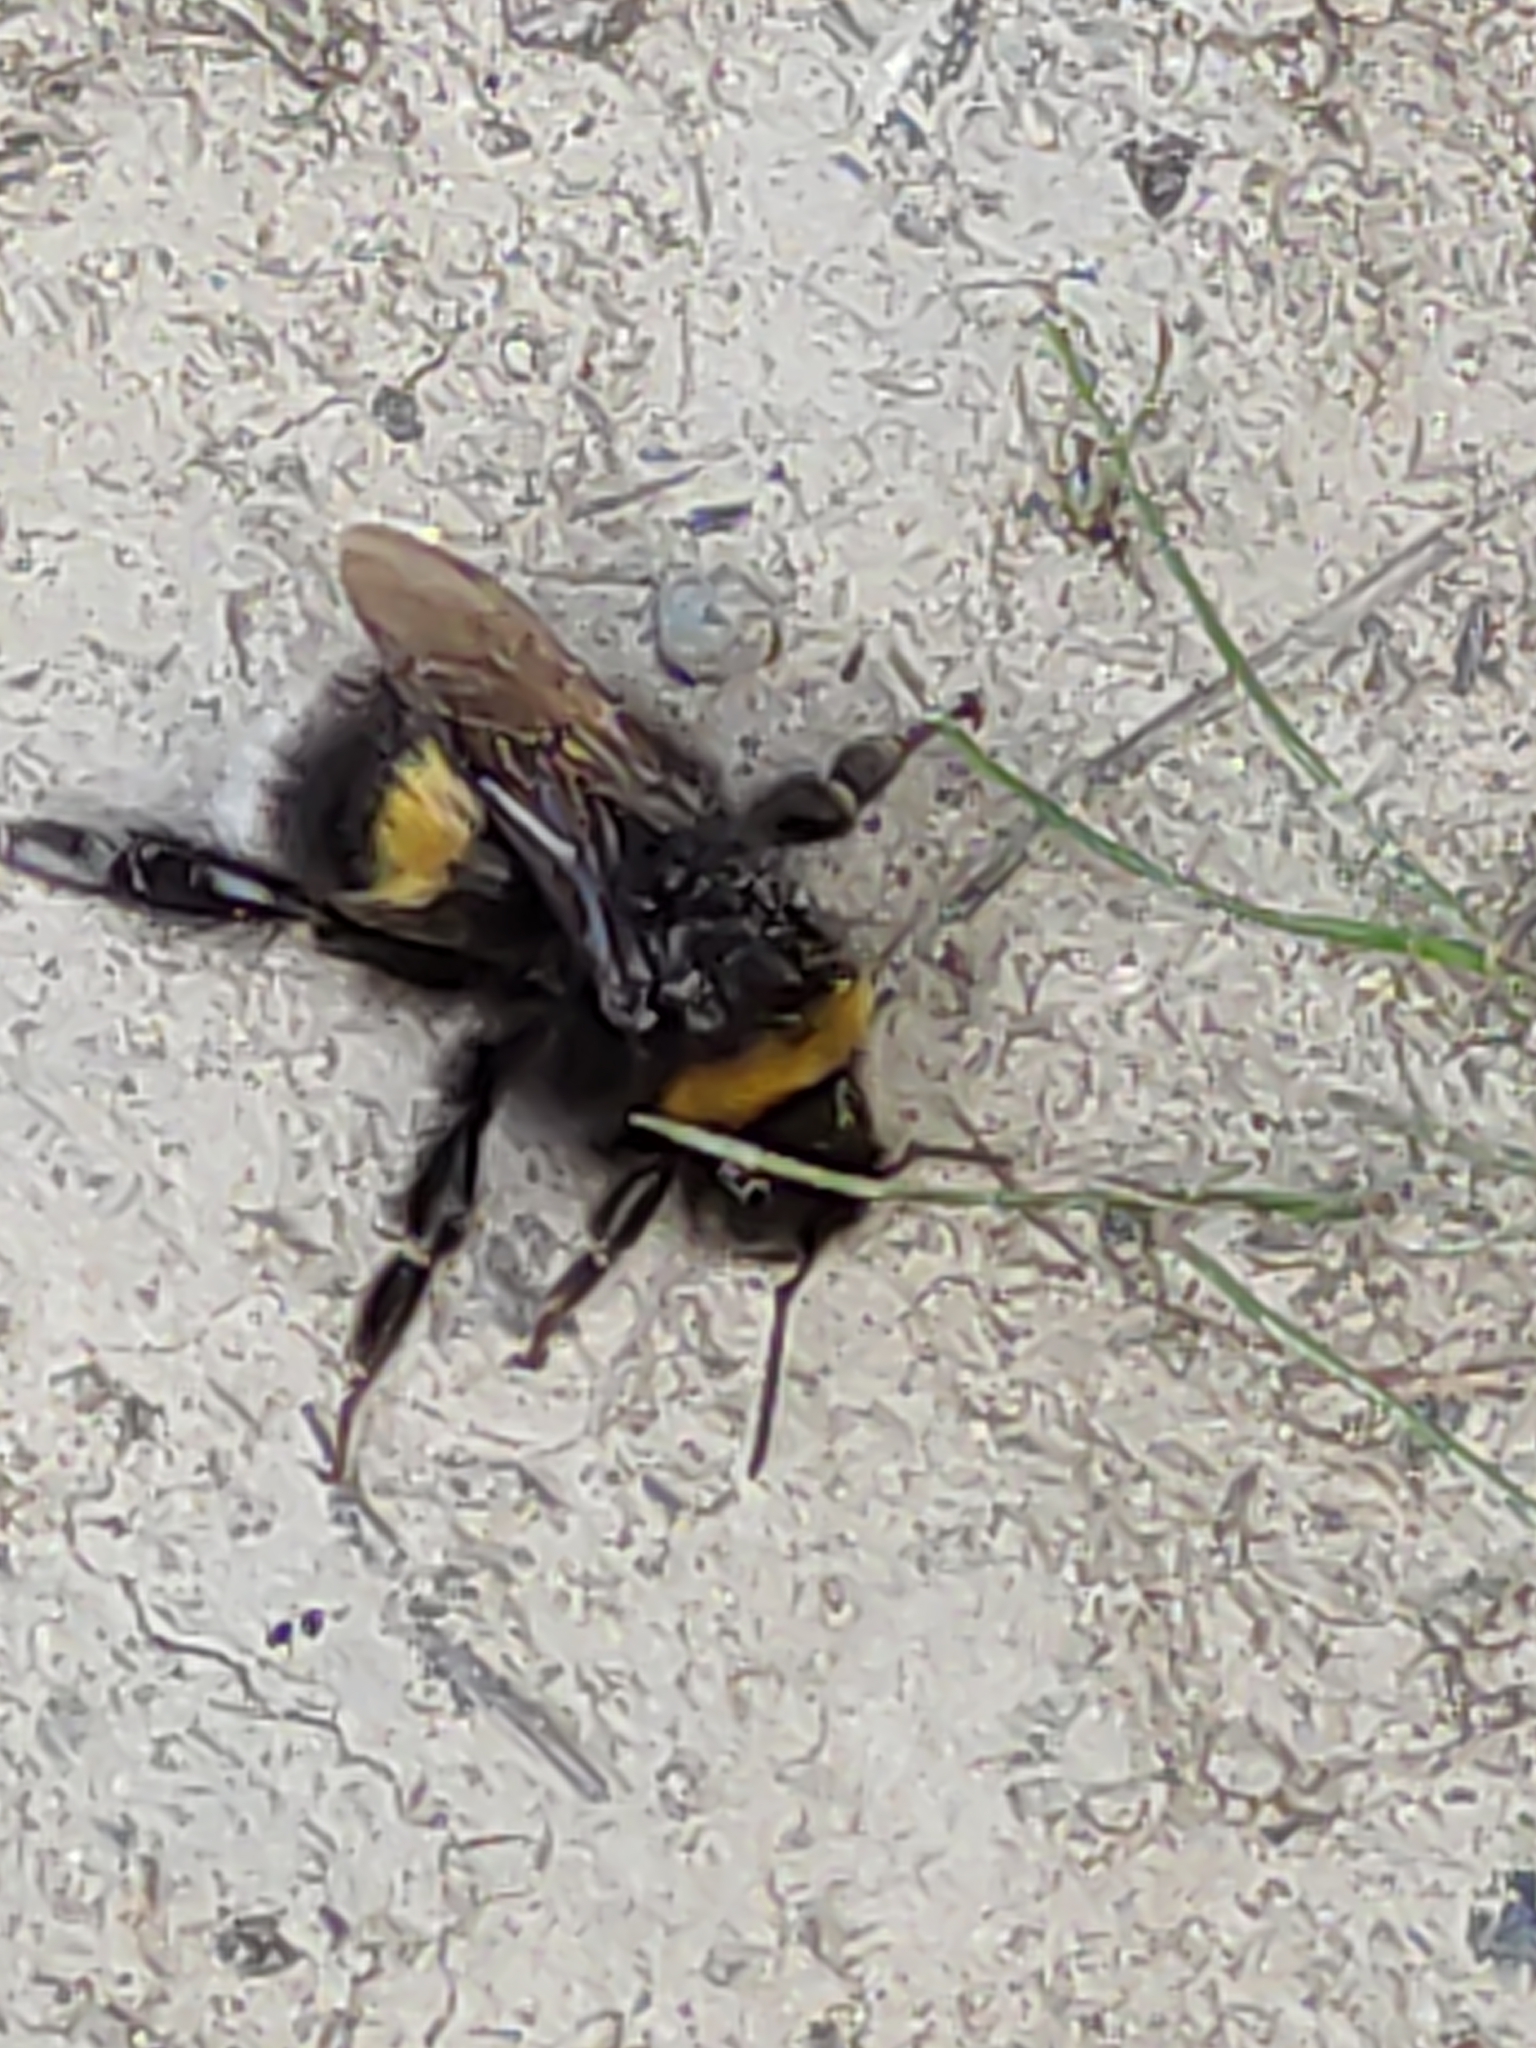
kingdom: Animalia
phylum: Arthropoda
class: Insecta
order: Hymenoptera
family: Apidae
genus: Bombus
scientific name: Bombus terrestris
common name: Buff-tailed bumblebee
